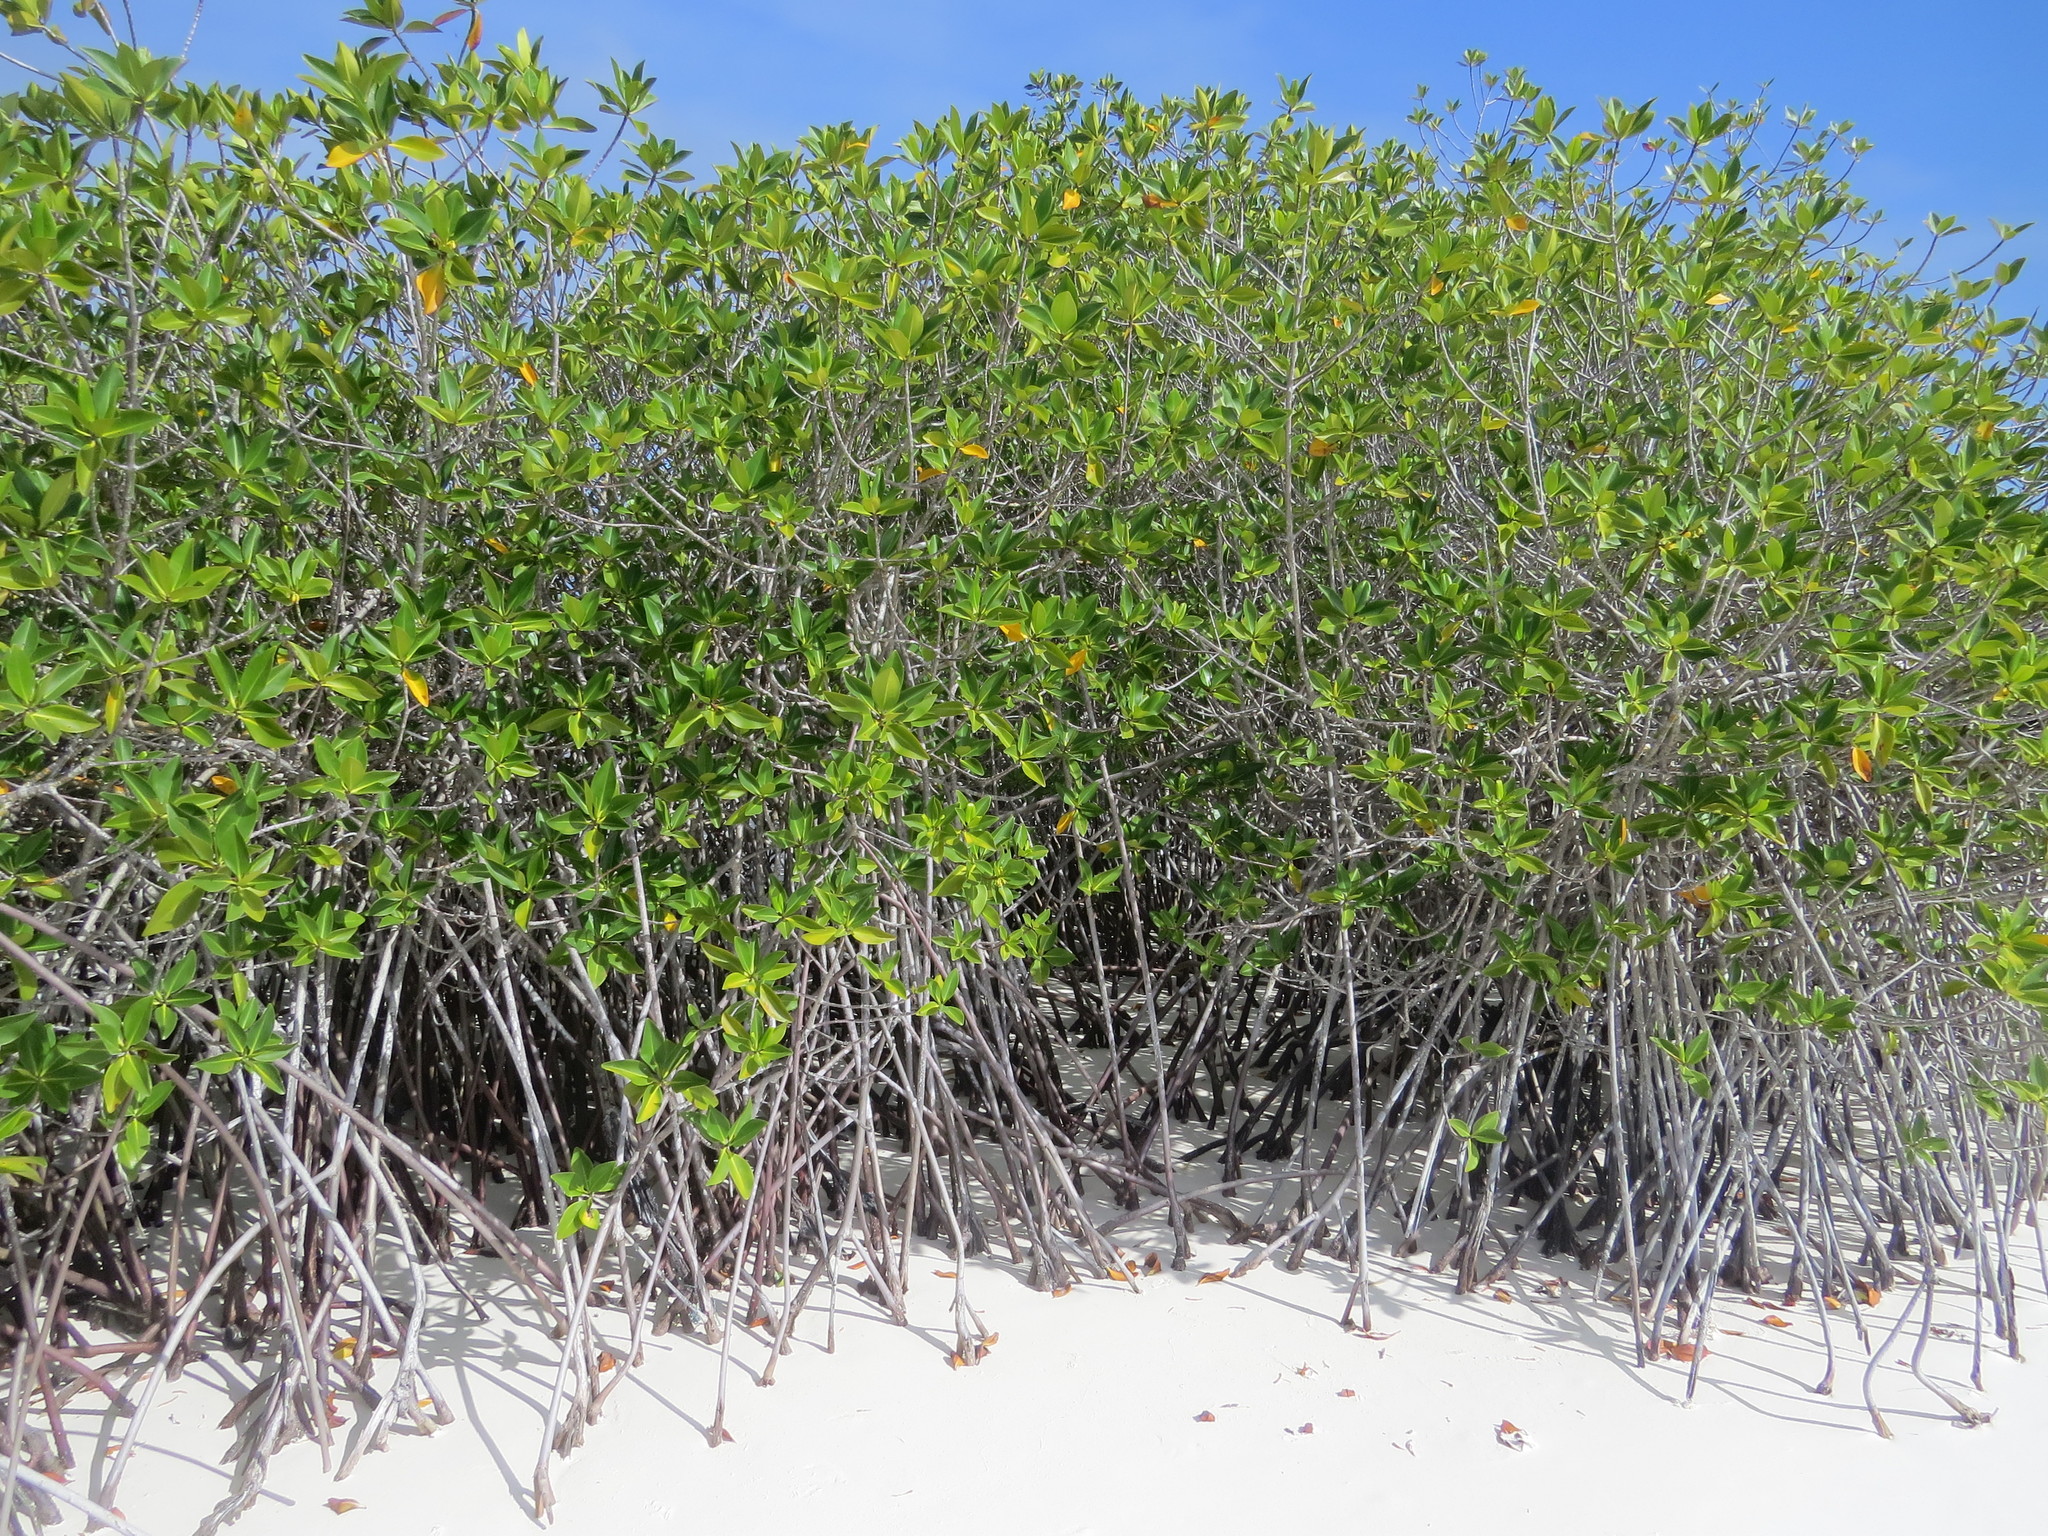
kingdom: Plantae
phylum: Tracheophyta
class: Magnoliopsida
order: Malpighiales
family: Rhizophoraceae
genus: Rhizophora
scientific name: Rhizophora mangle
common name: Red mangrove
